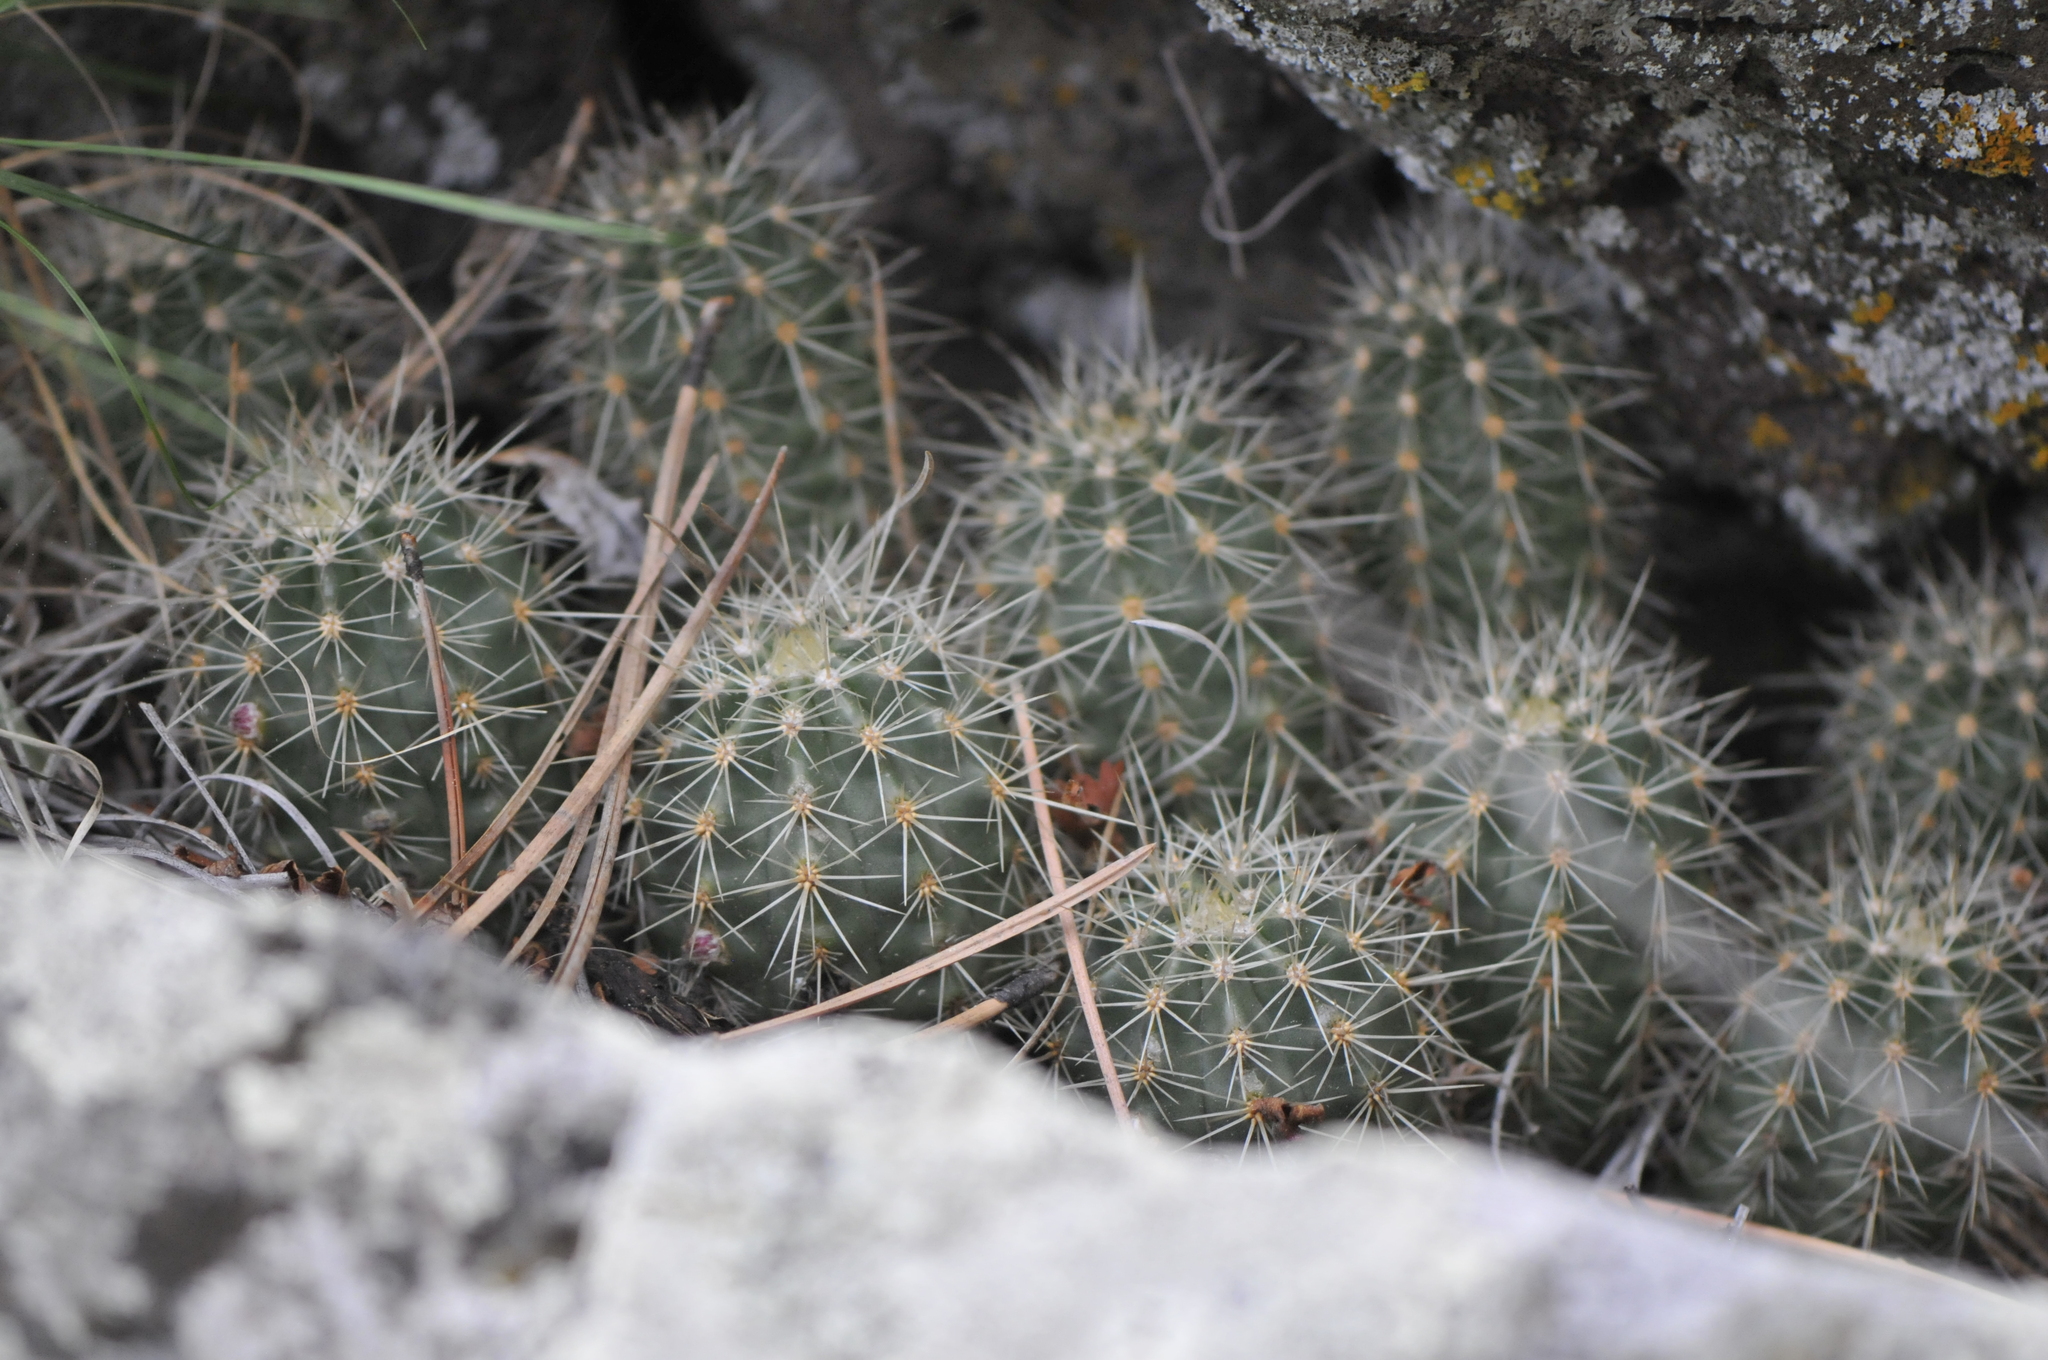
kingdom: Plantae
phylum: Tracheophyta
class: Magnoliopsida
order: Caryophyllales
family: Cactaceae
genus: Echinocereus
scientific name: Echinocereus coccineus
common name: Scarlet hedgehog cactus
